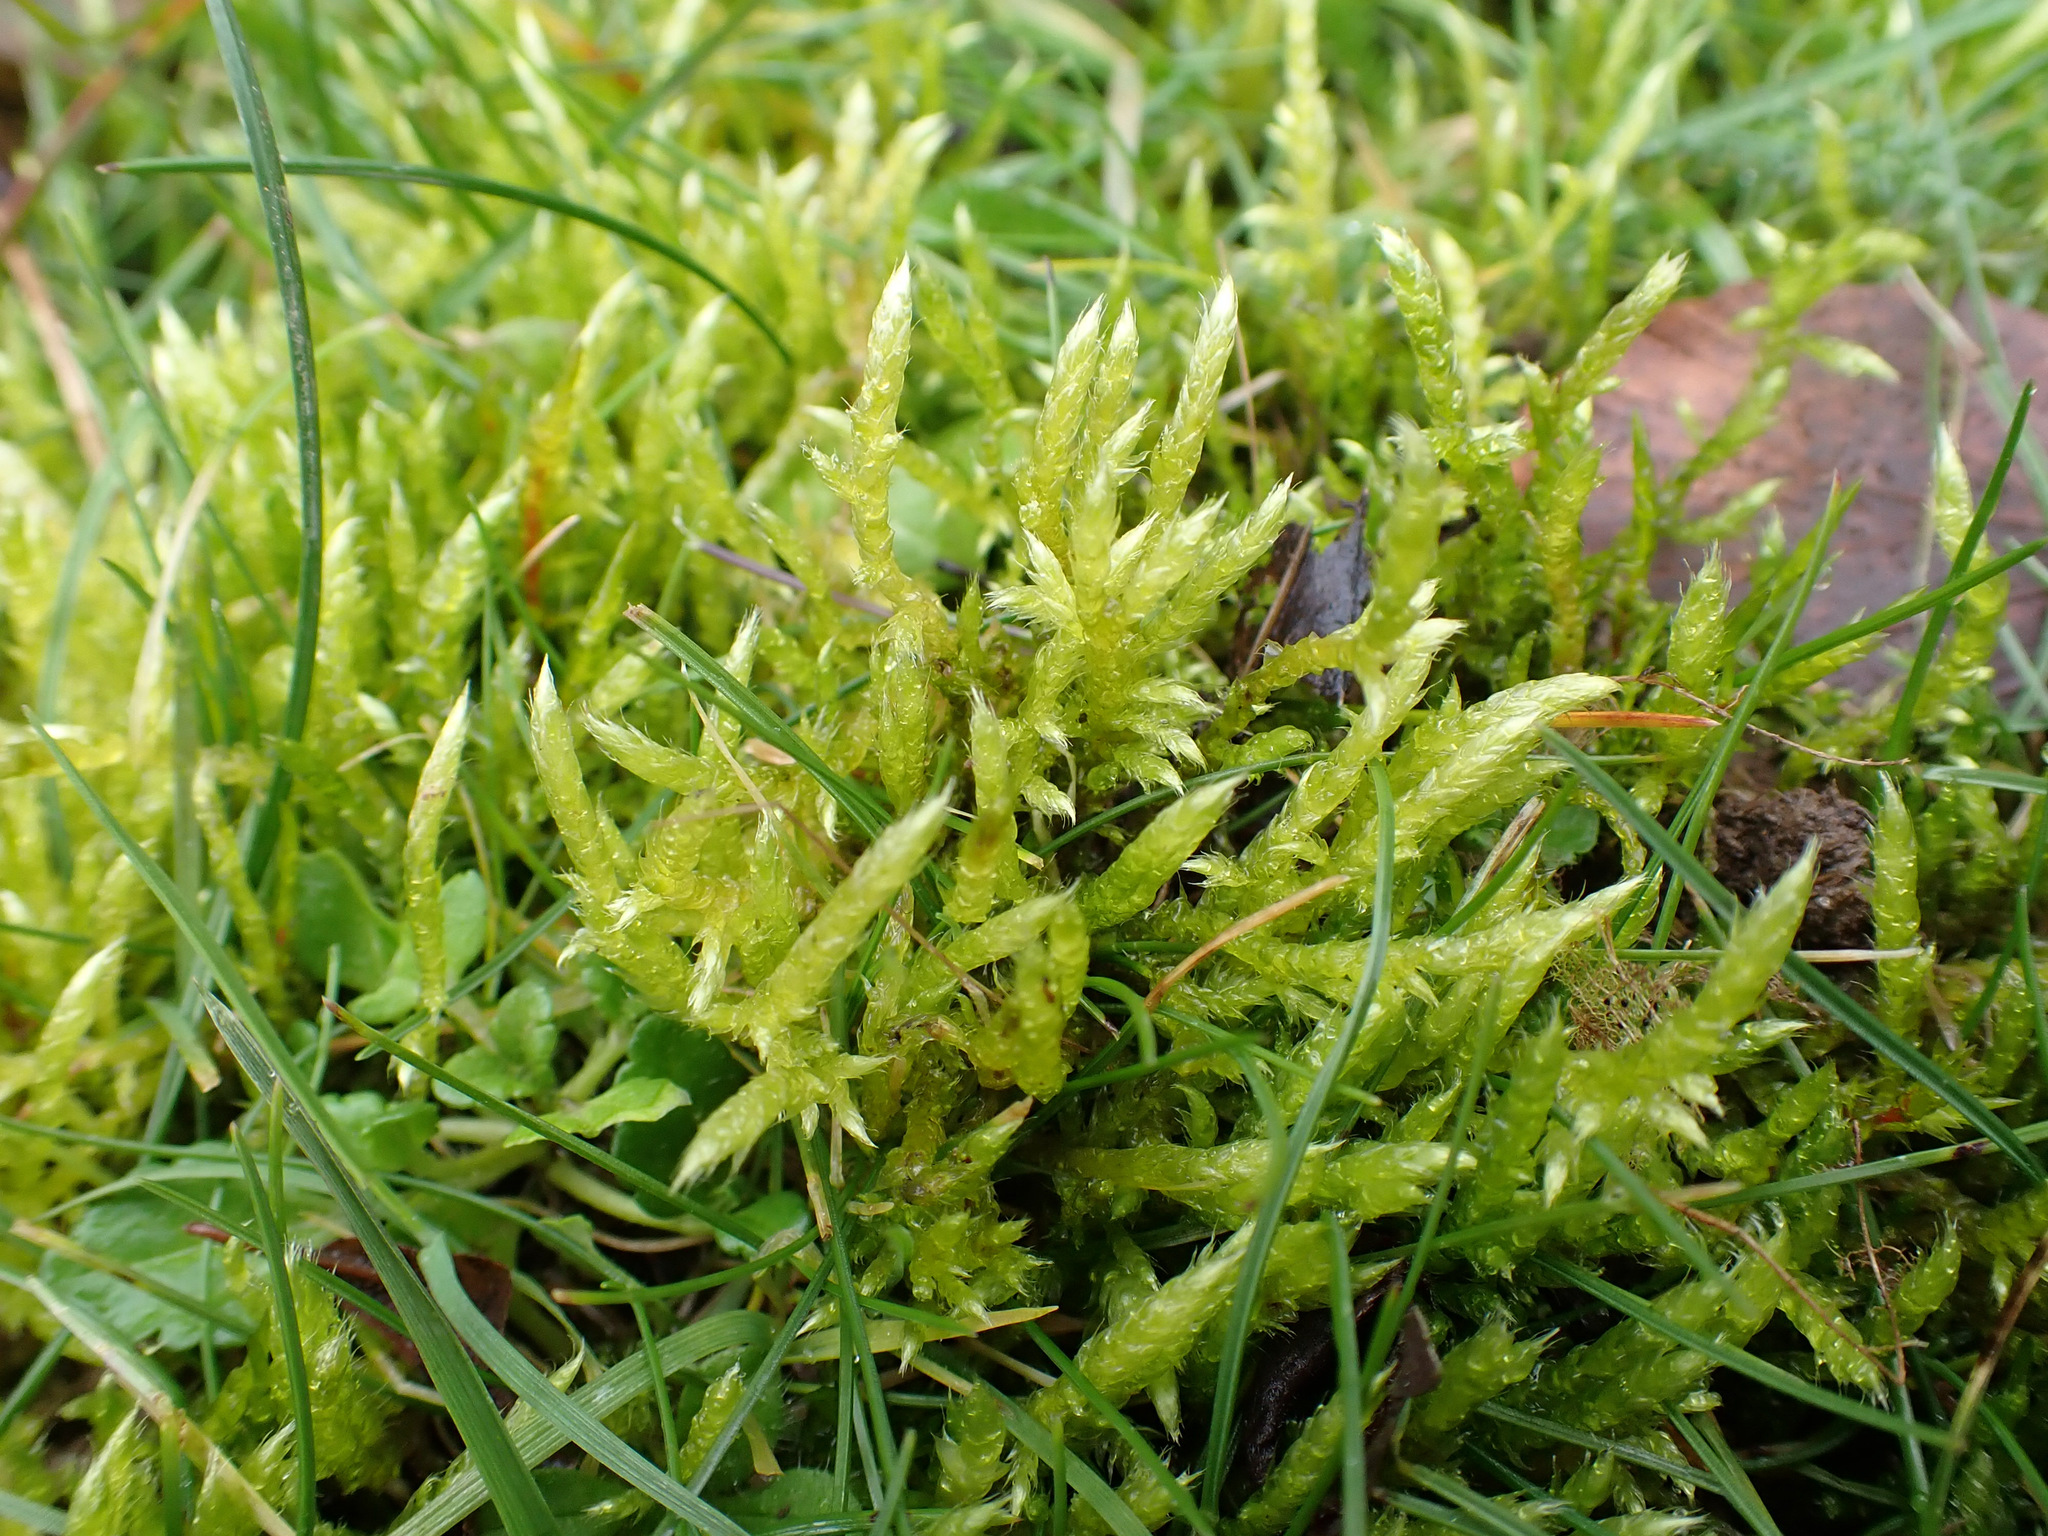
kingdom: Plantae
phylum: Bryophyta
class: Bryopsida
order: Hypnales
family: Brachytheciaceae
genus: Brachythecium
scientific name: Brachythecium albicans
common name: Whitish ragged moss
